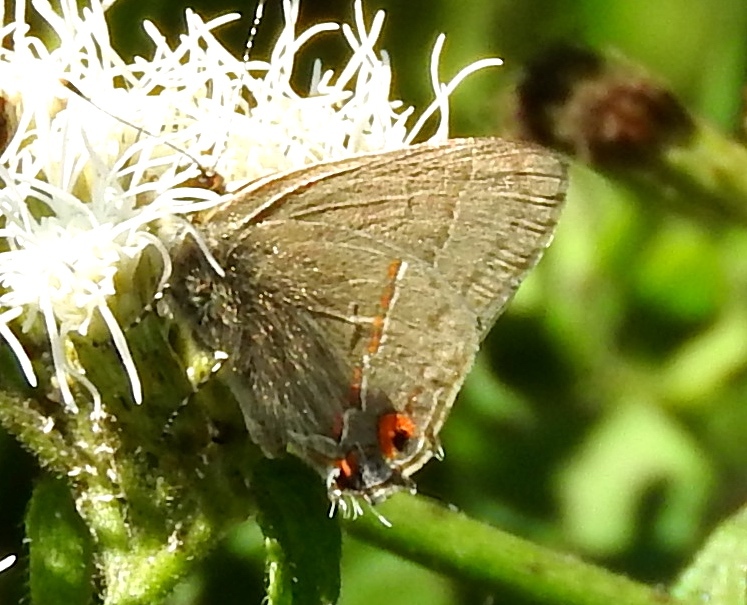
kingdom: Animalia
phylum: Arthropoda
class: Insecta
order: Lepidoptera
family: Lycaenidae
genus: Electrostrymon
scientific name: Electrostrymon endymion
